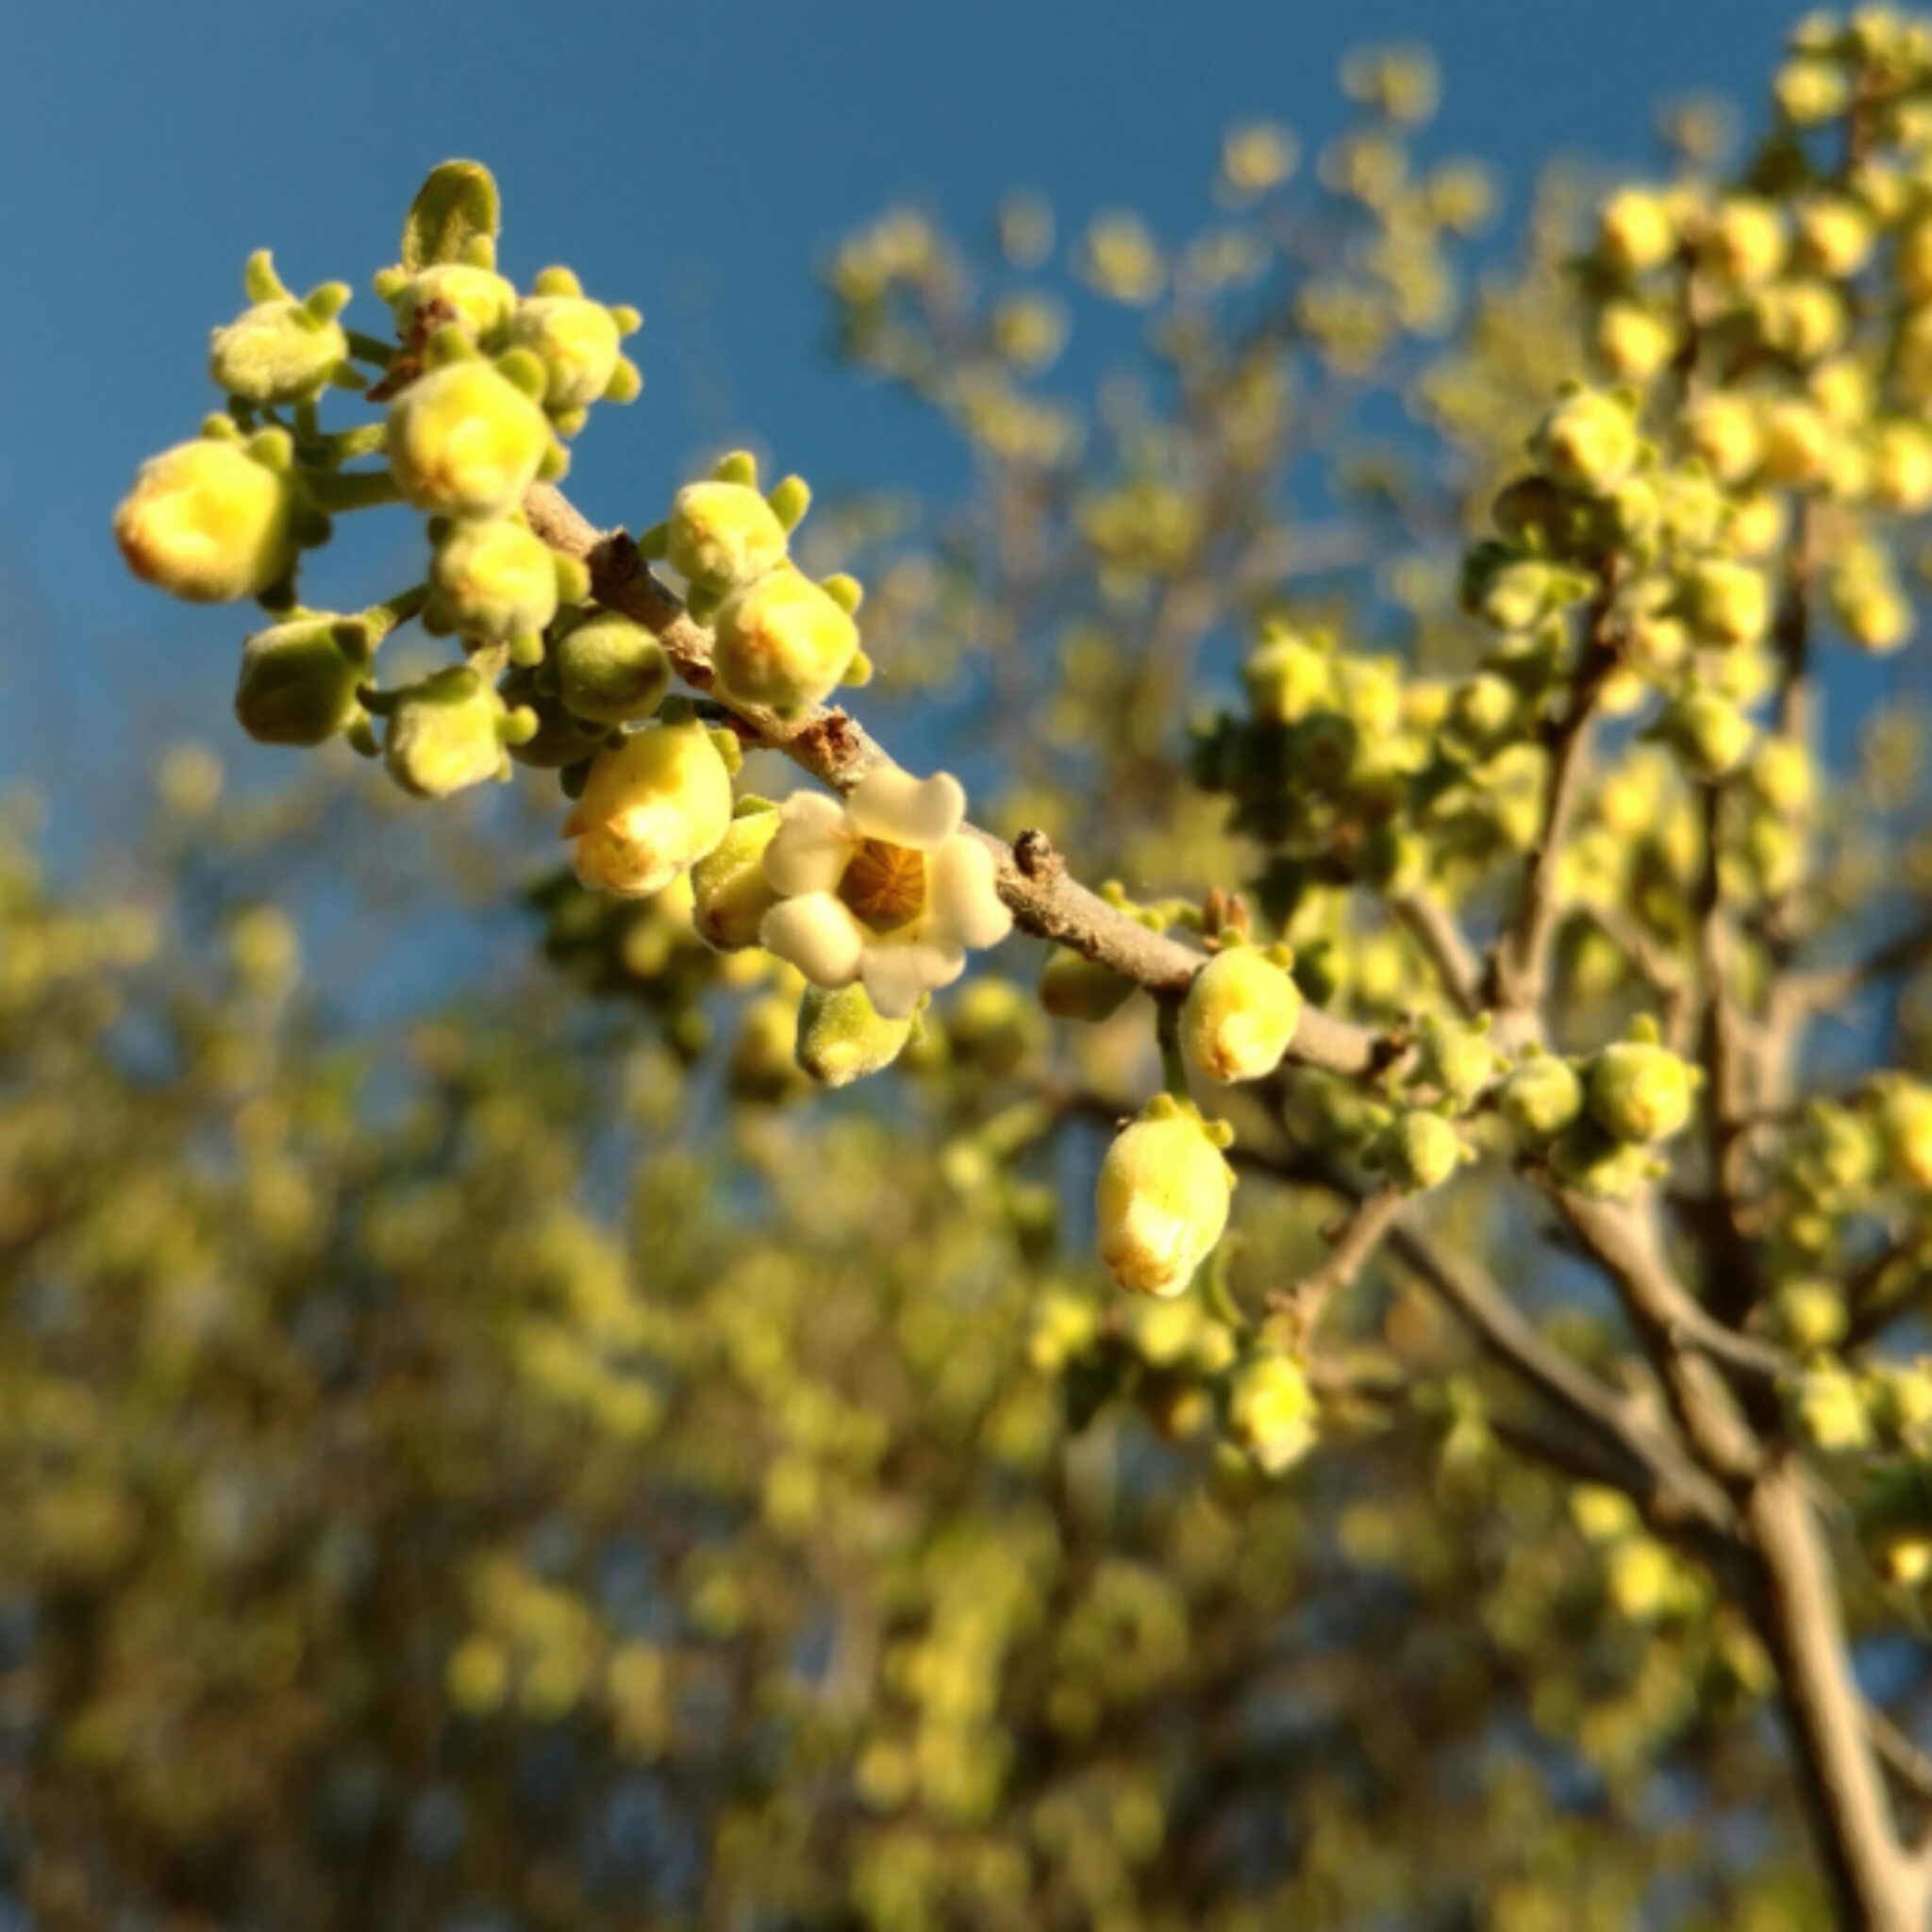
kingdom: Plantae
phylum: Tracheophyta
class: Magnoliopsida
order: Ericales
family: Ebenaceae
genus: Diospyros
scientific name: Diospyros texana
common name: Texas persimmon
